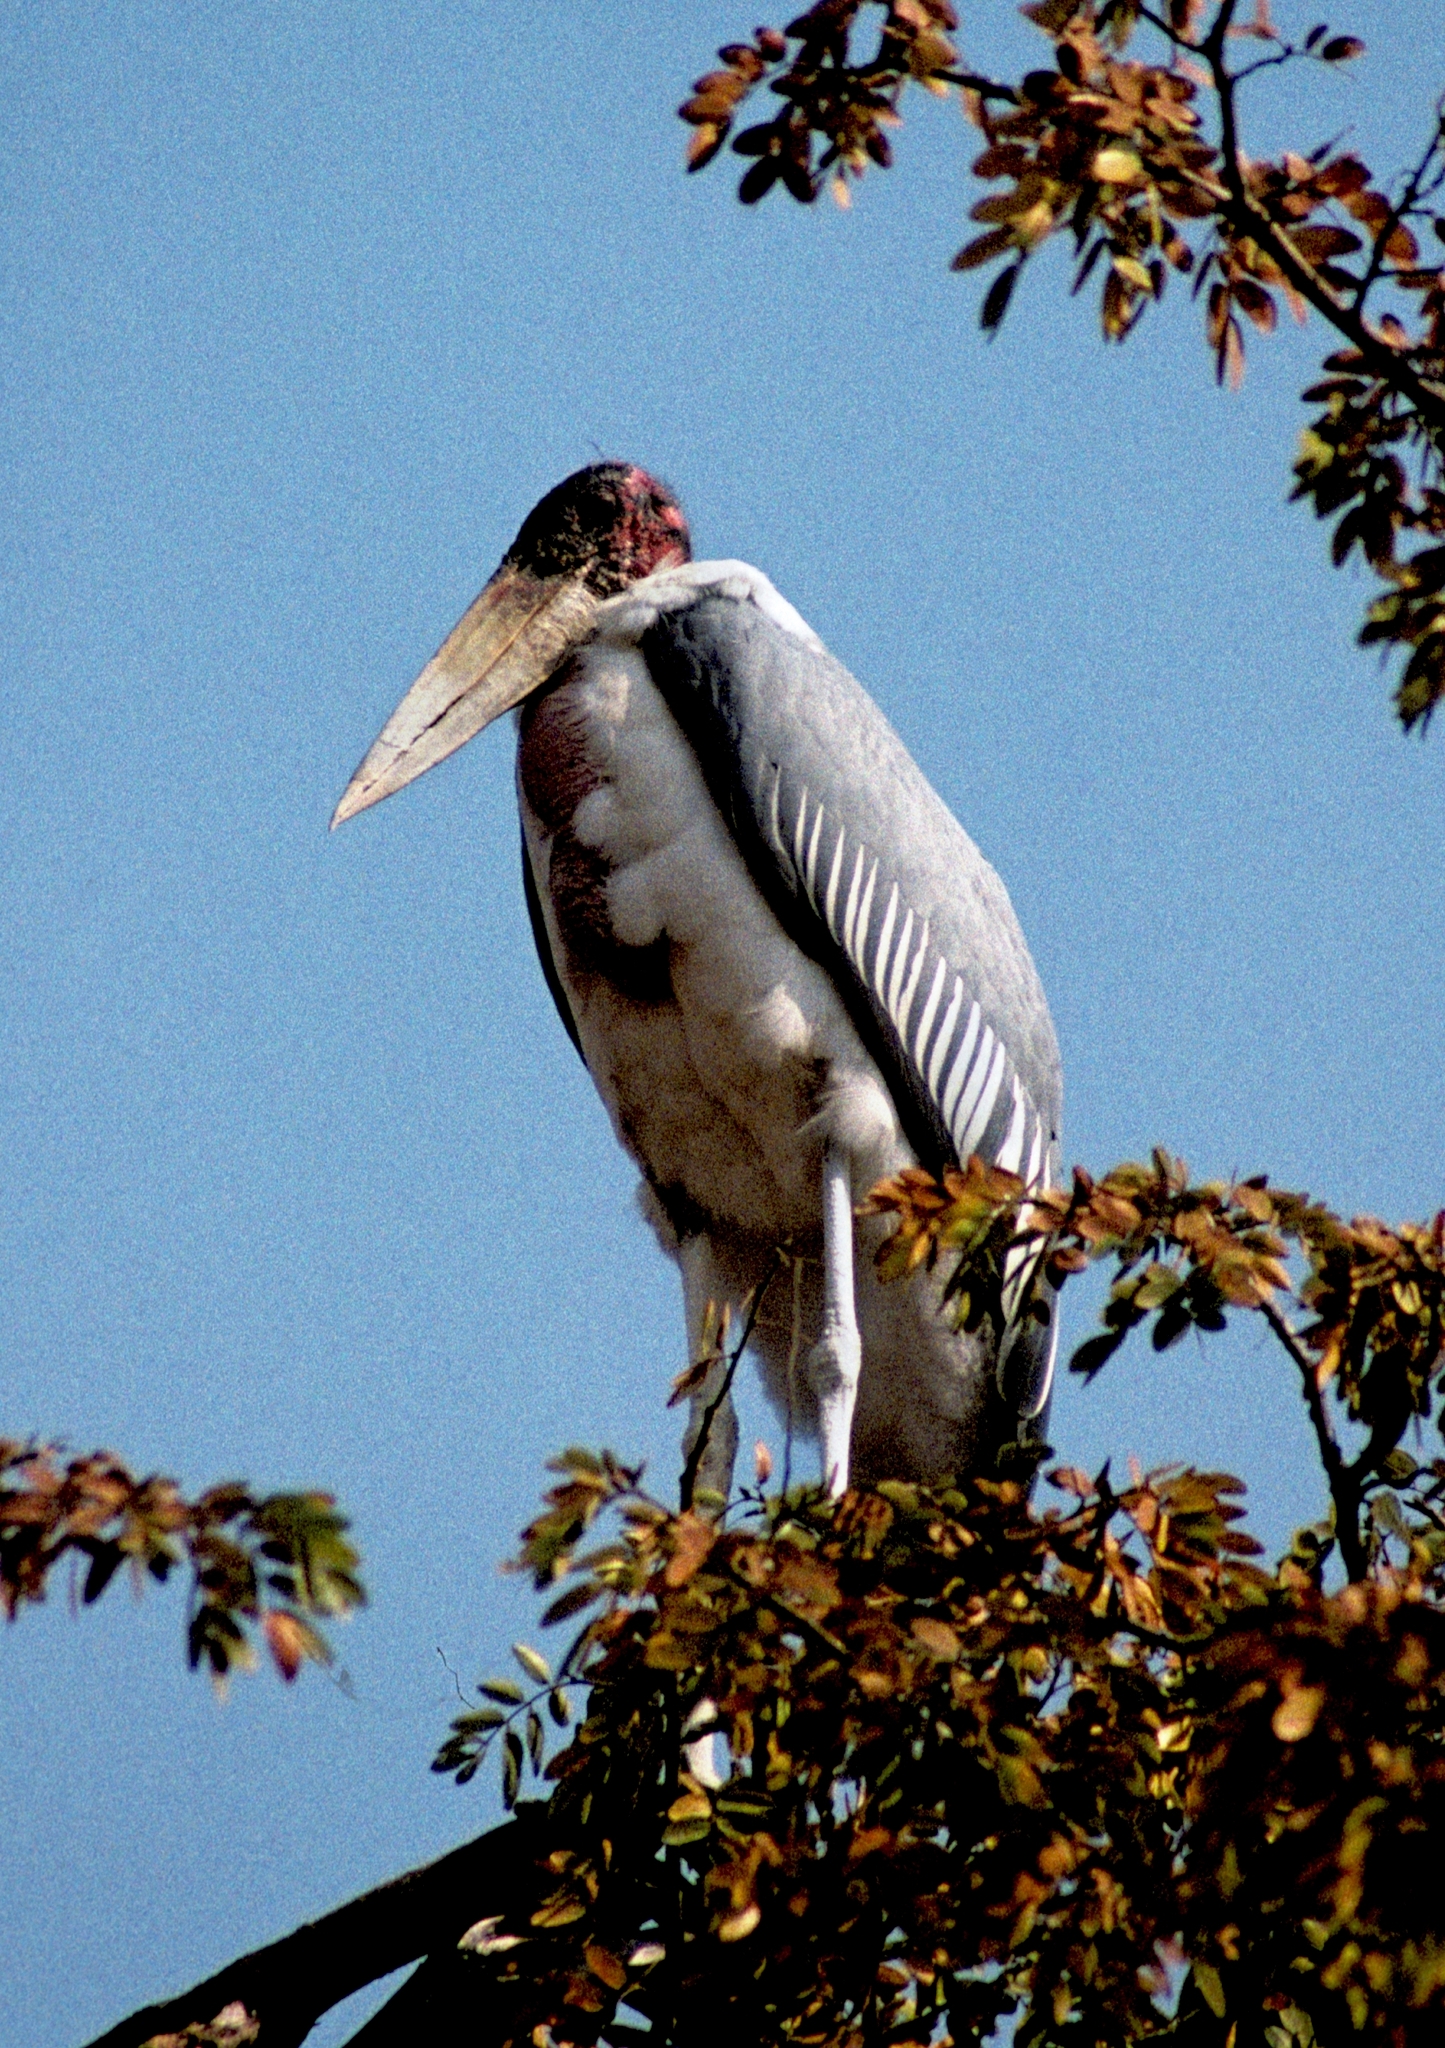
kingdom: Animalia
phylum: Chordata
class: Aves
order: Ciconiiformes
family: Ciconiidae
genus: Leptoptilos
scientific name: Leptoptilos crumenifer
